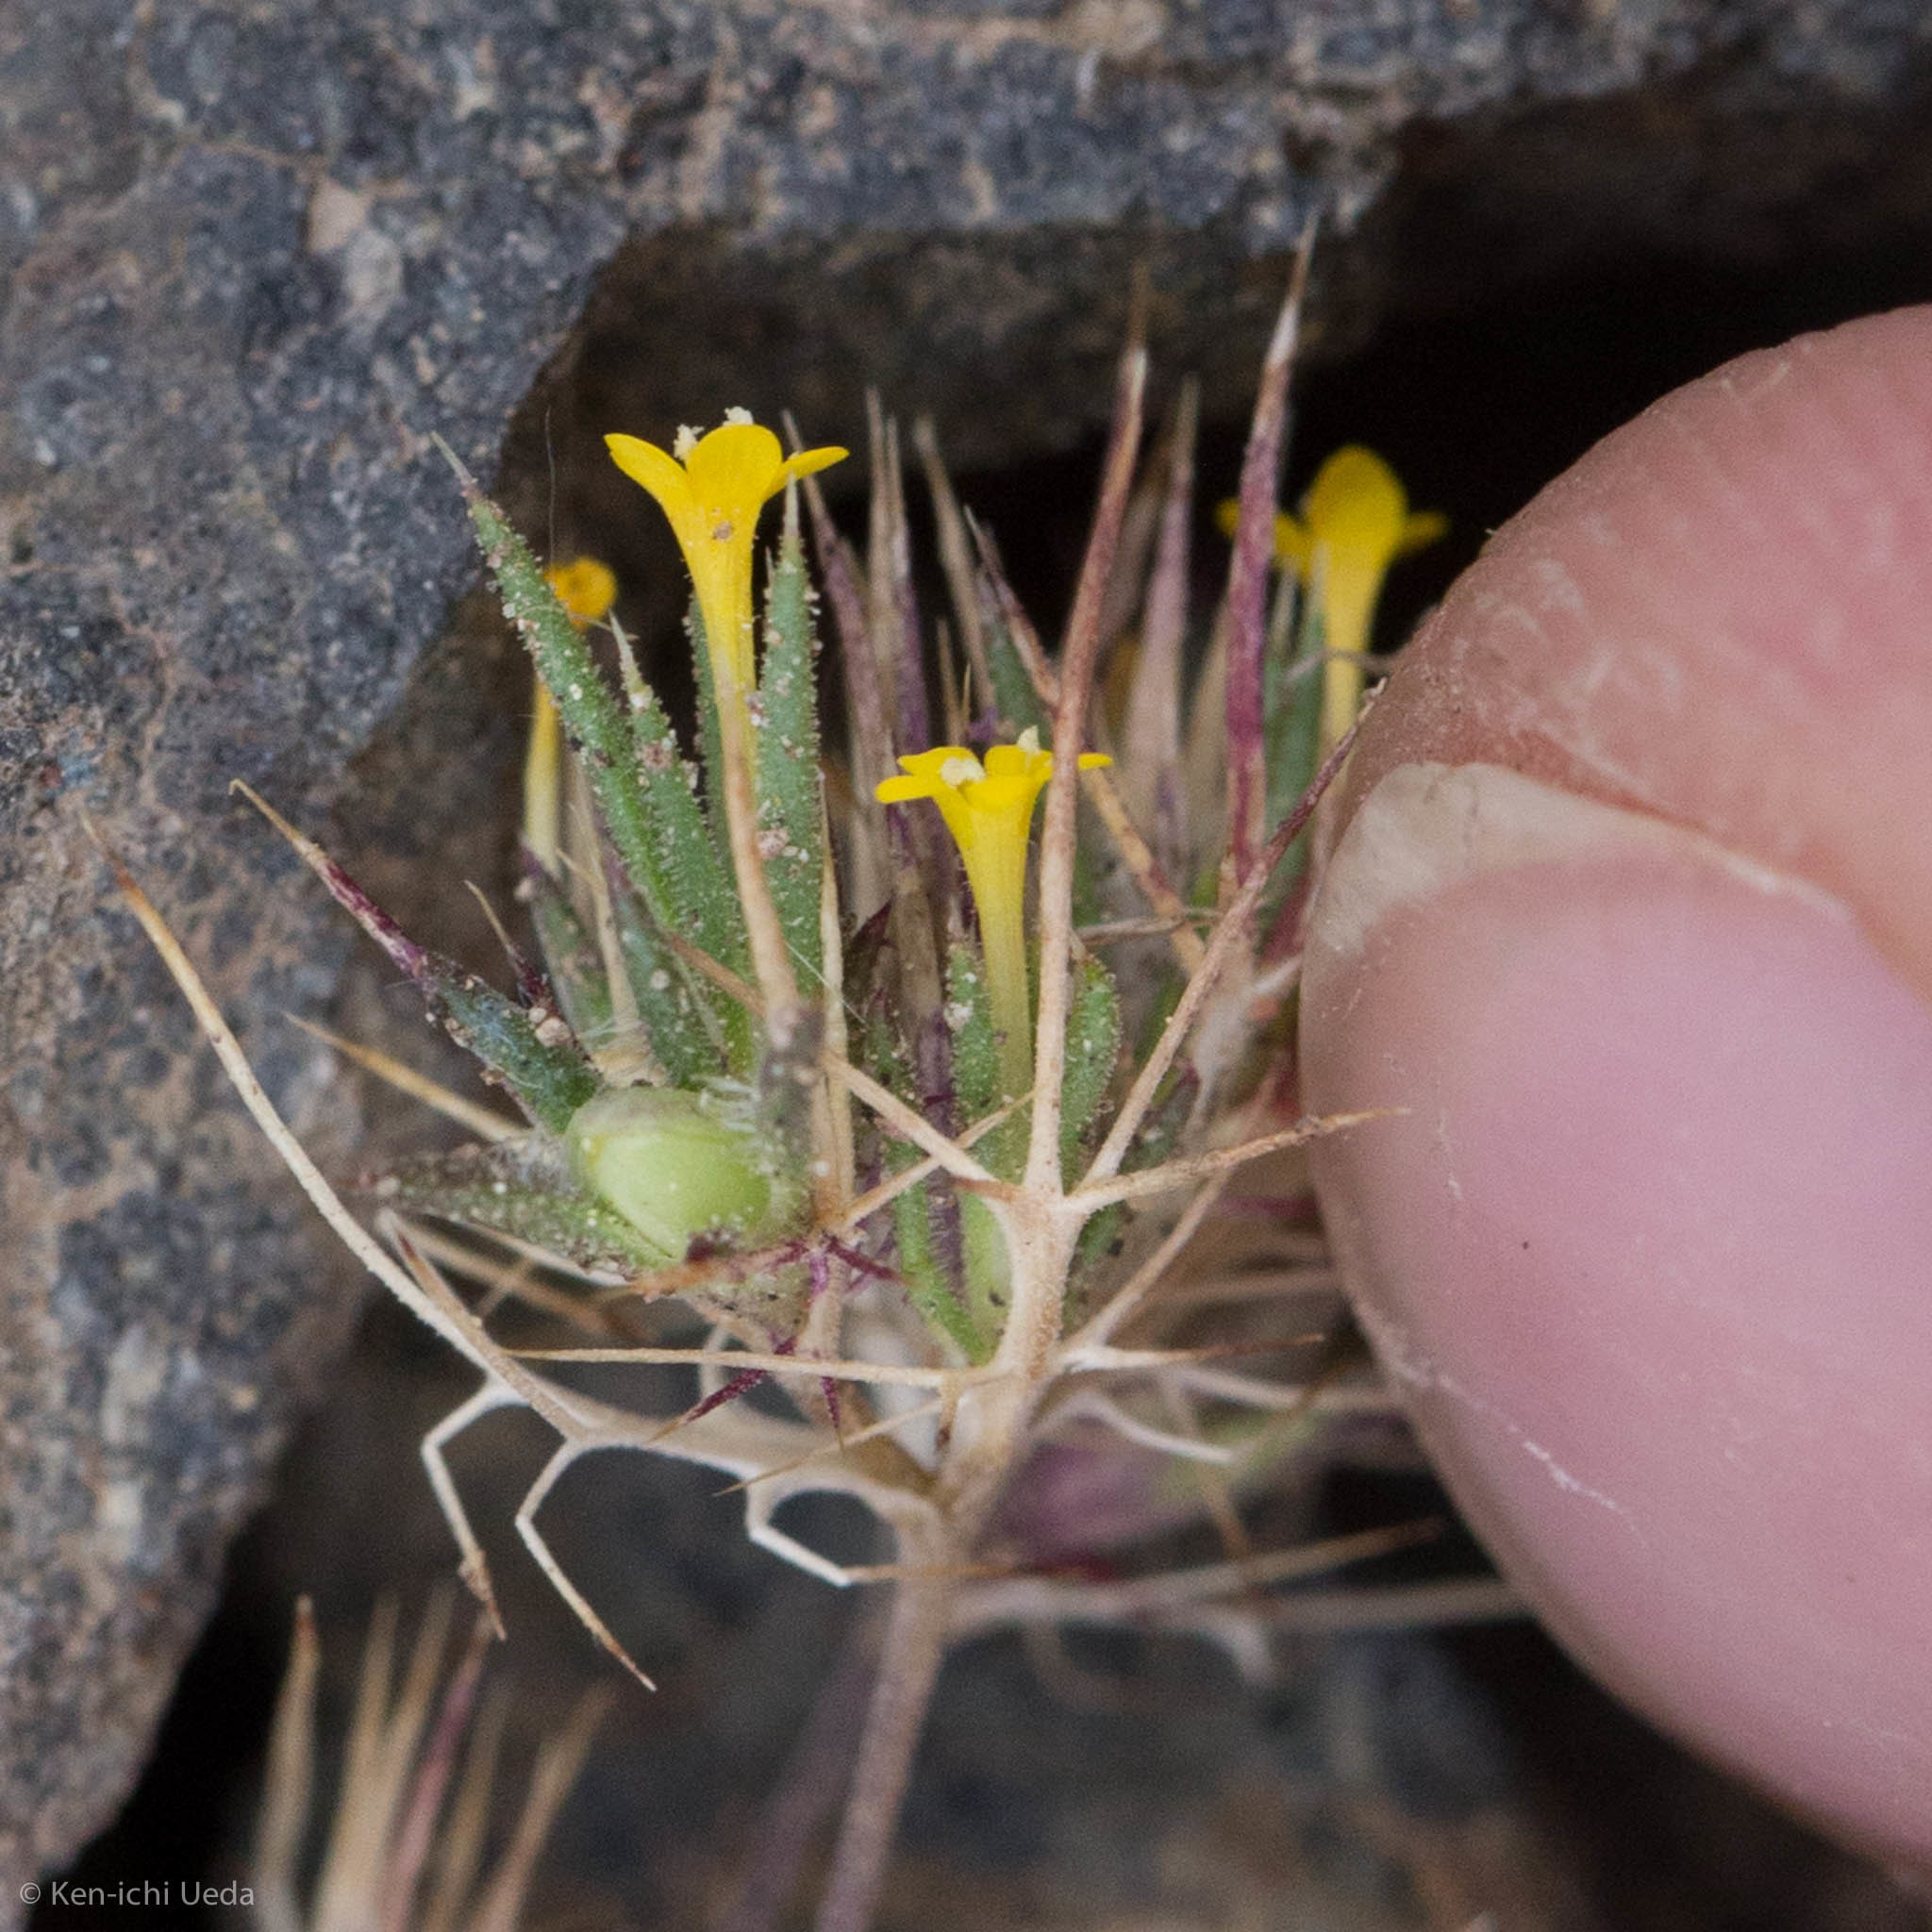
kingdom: Plantae
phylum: Tracheophyta
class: Magnoliopsida
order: Ericales
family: Polemoniaceae
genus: Navarretia
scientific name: Navarretia breweri
